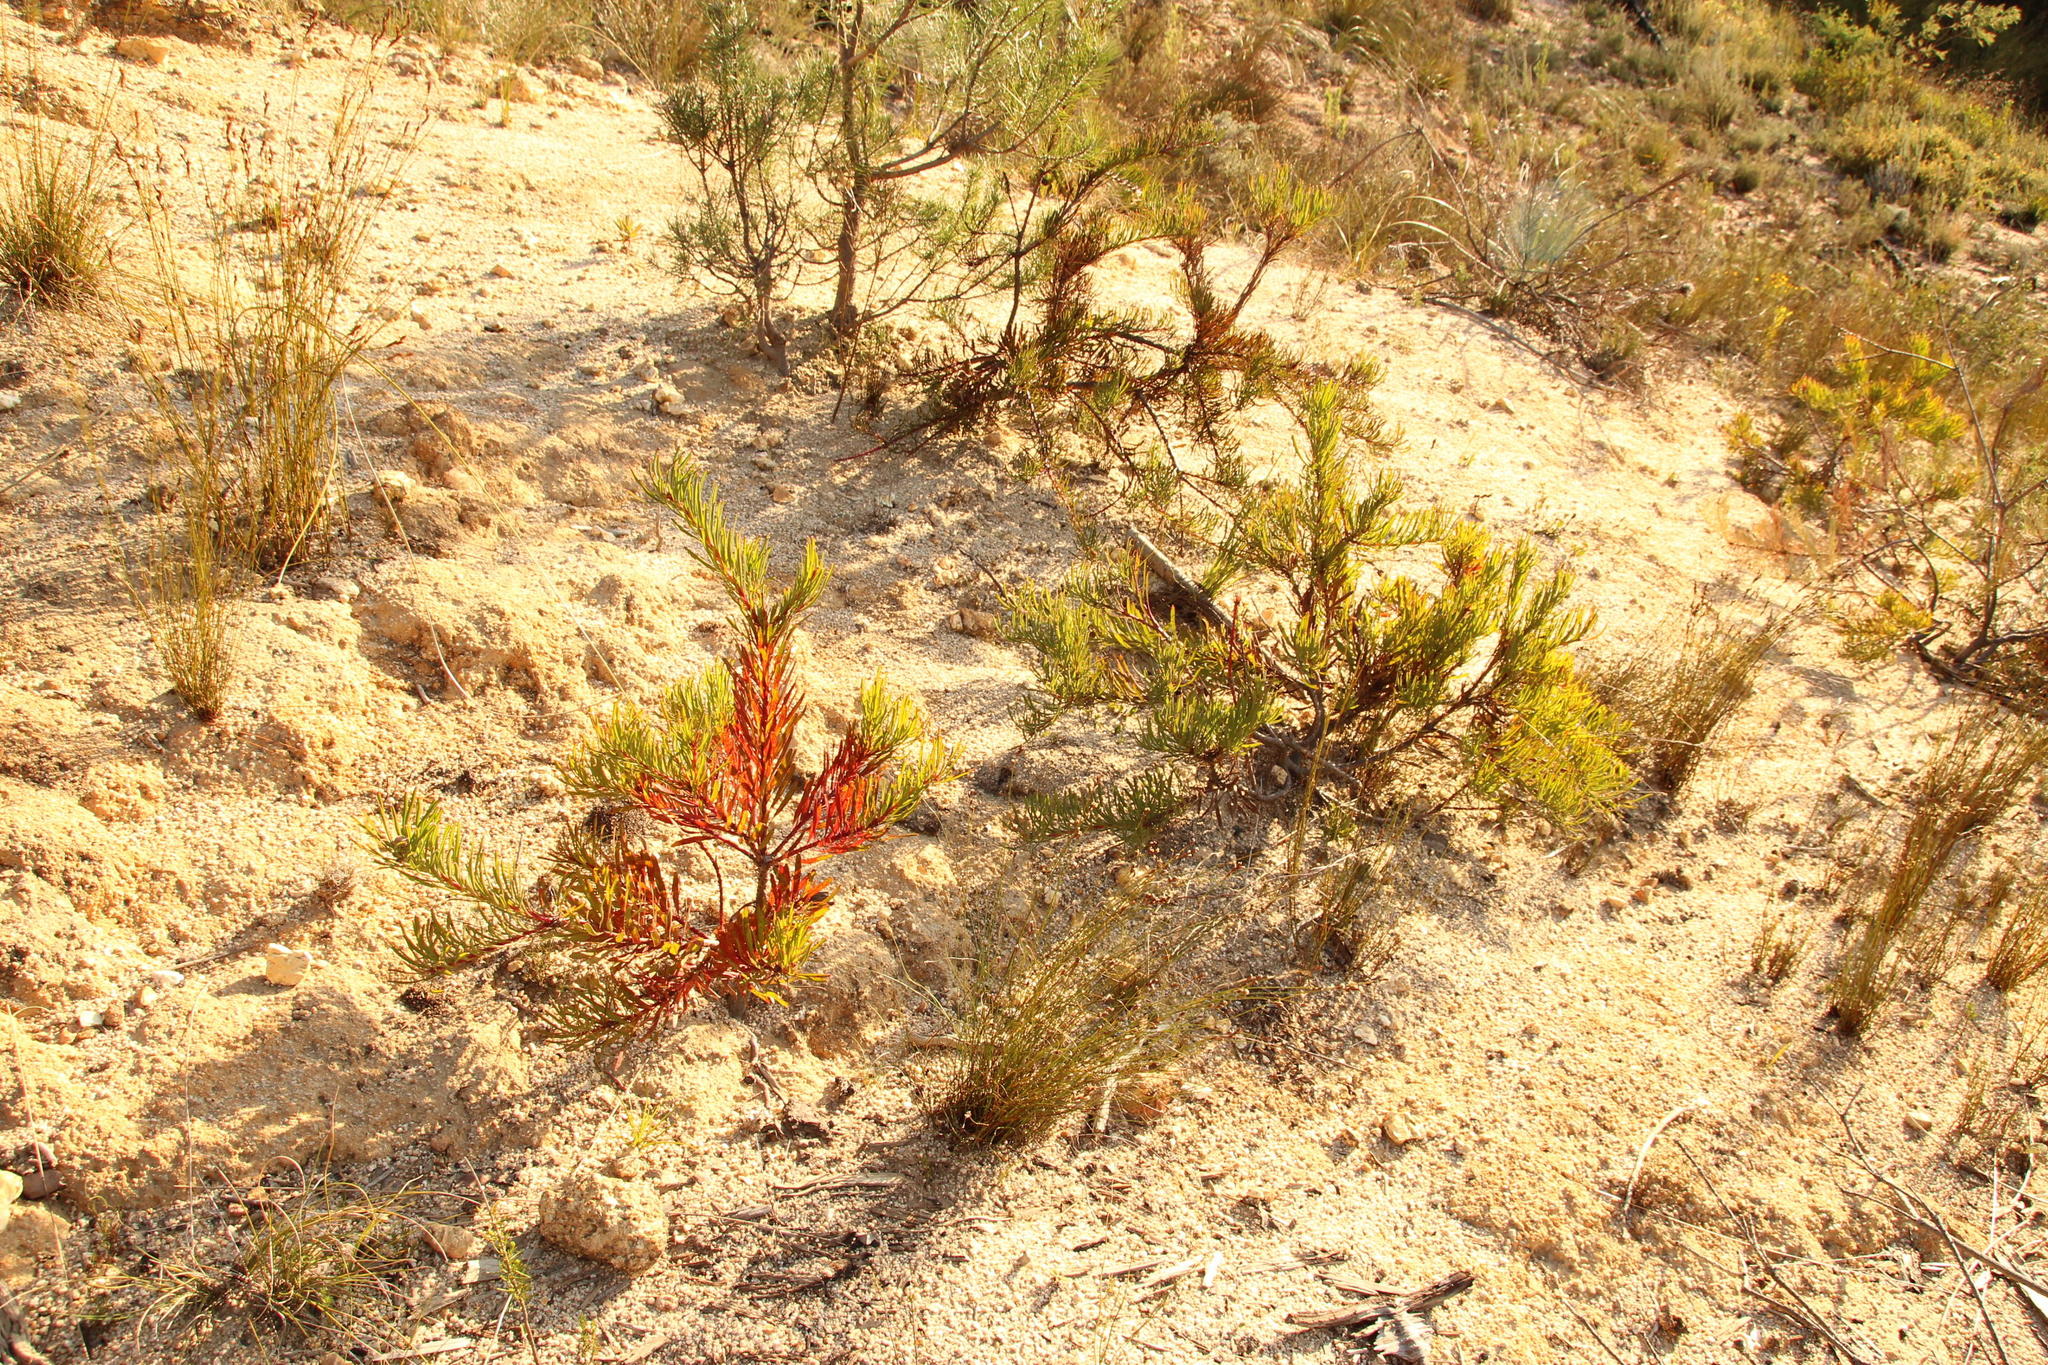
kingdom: Plantae
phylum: Tracheophyta
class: Magnoliopsida
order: Proteales
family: Proteaceae
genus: Leucospermum
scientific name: Leucospermum lineare
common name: Needle-leaf pincushion
